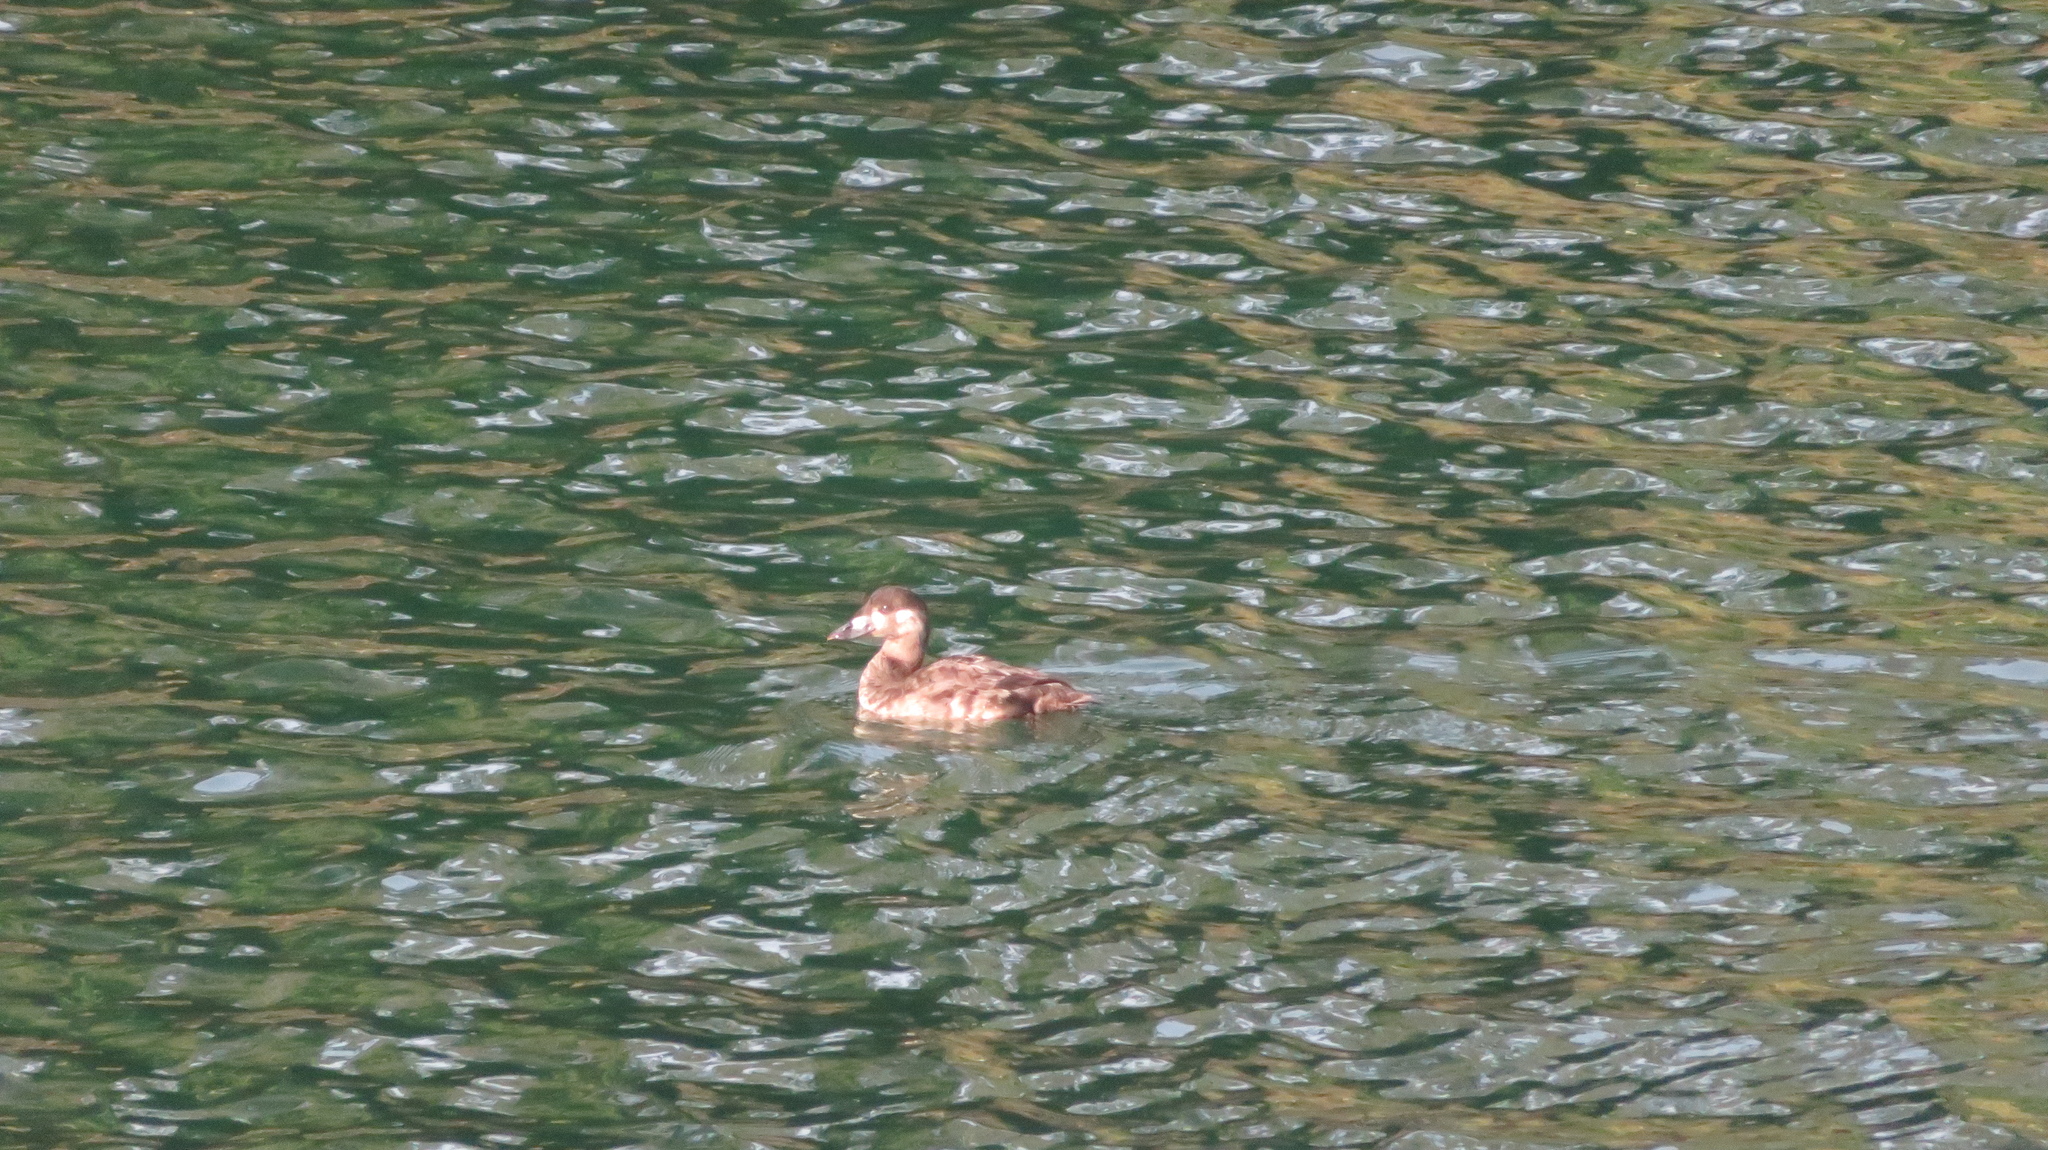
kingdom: Animalia
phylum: Chordata
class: Aves
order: Anseriformes
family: Anatidae
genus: Melanitta
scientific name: Melanitta perspicillata
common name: Surf scoter
